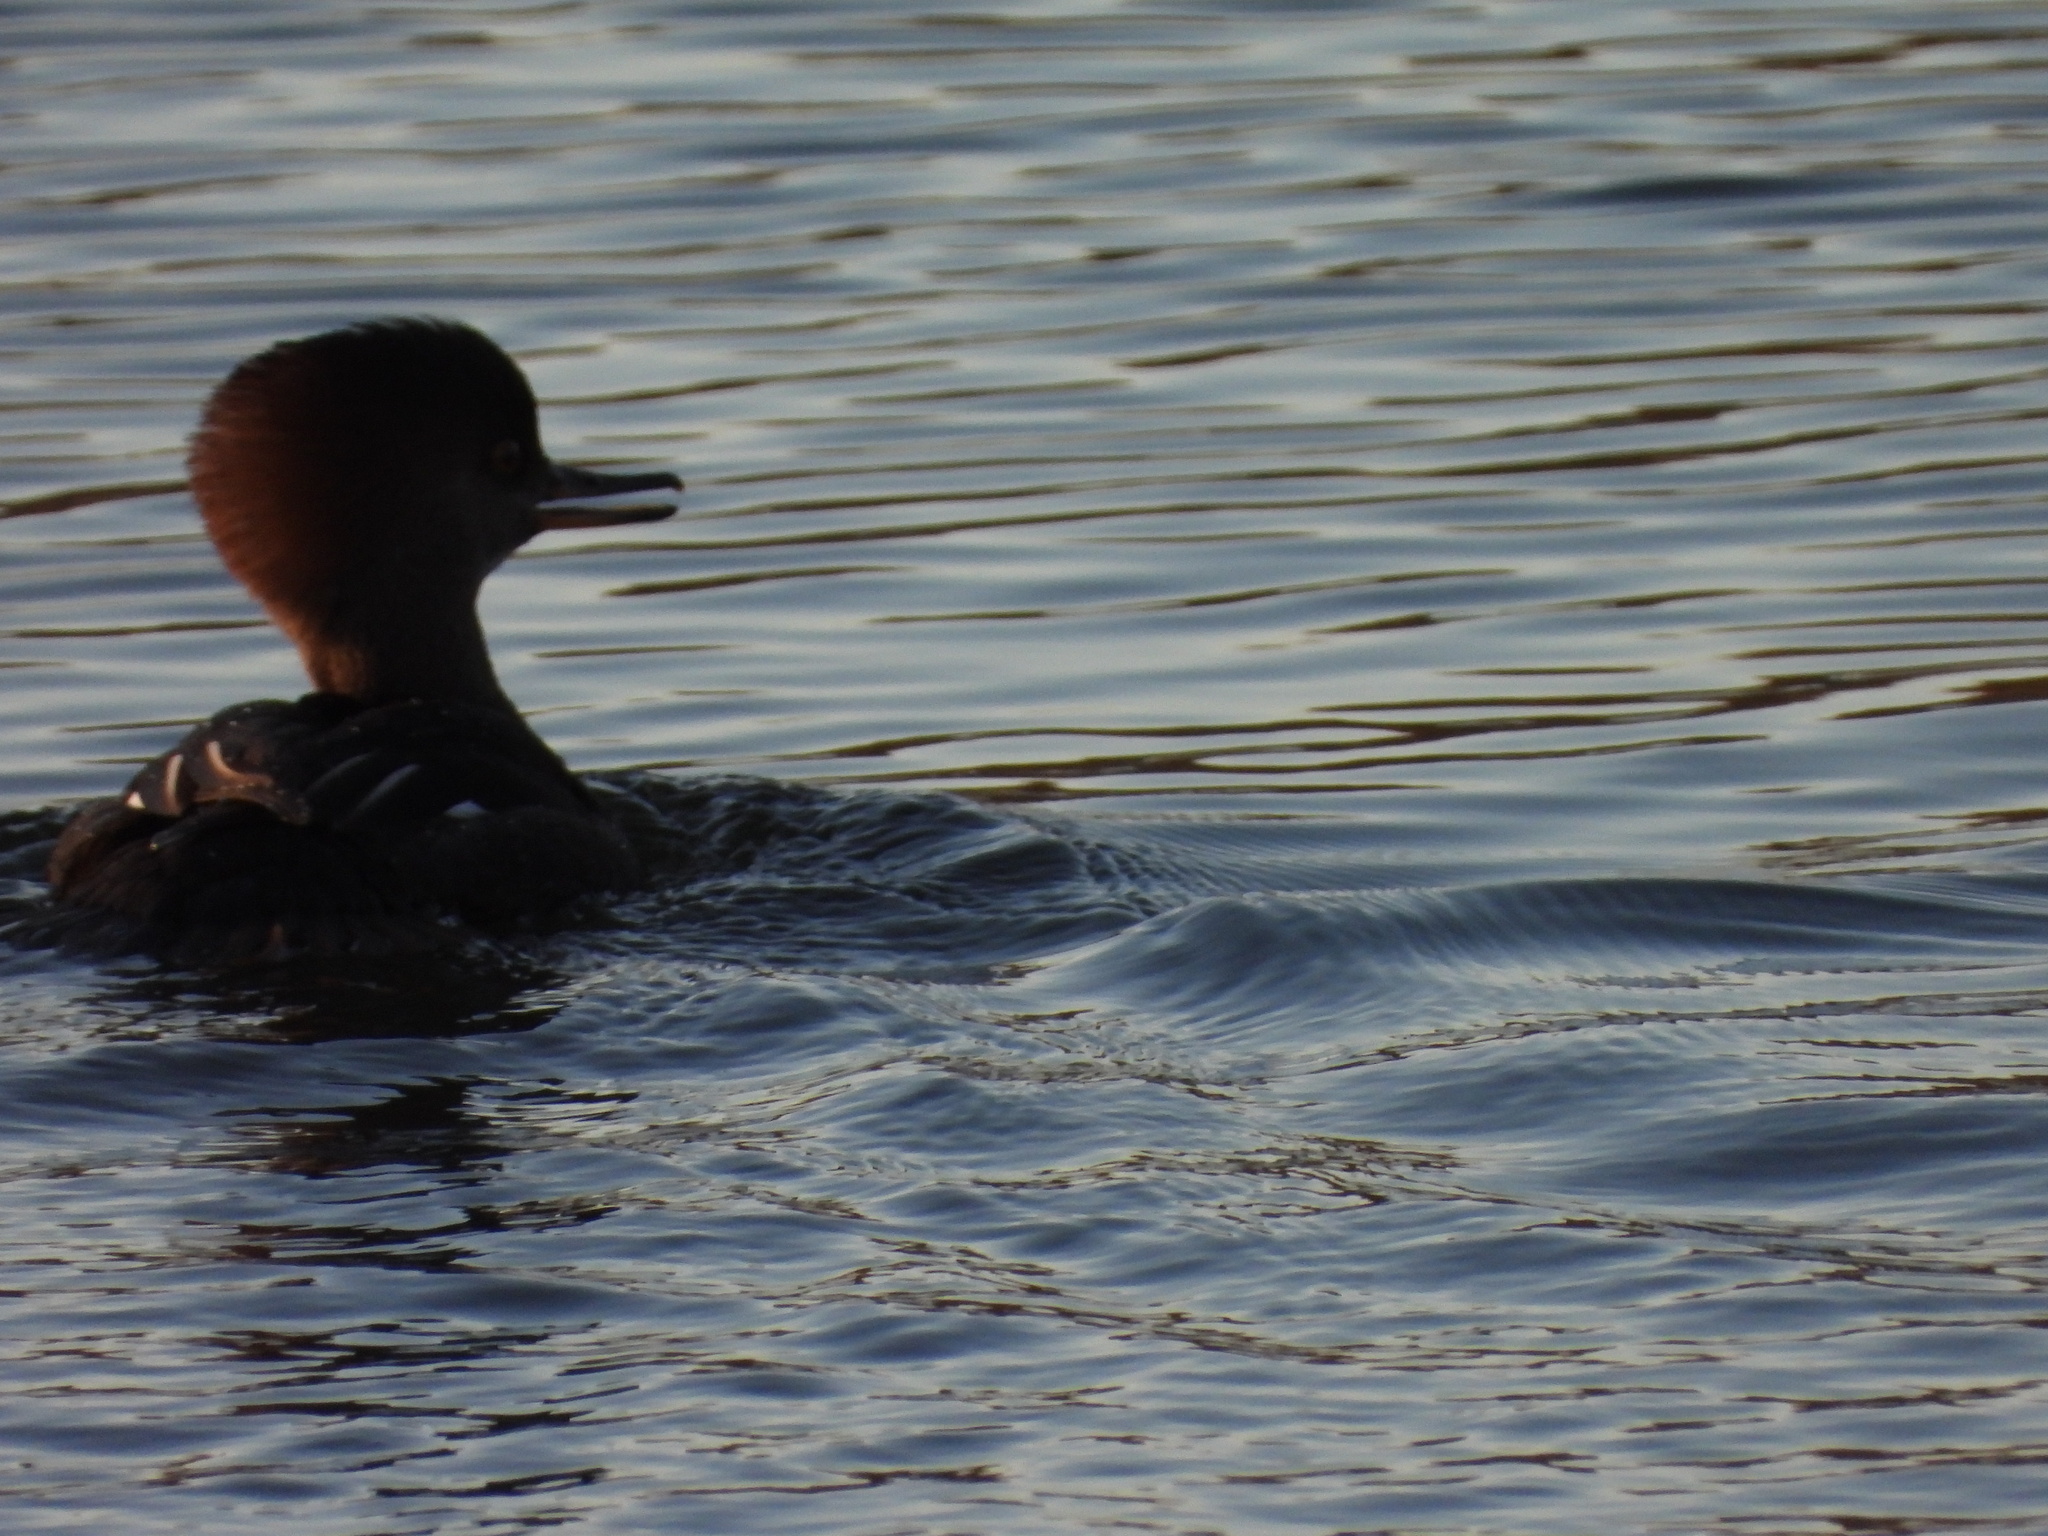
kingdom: Animalia
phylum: Chordata
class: Aves
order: Anseriformes
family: Anatidae
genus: Lophodytes
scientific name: Lophodytes cucullatus
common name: Hooded merganser
